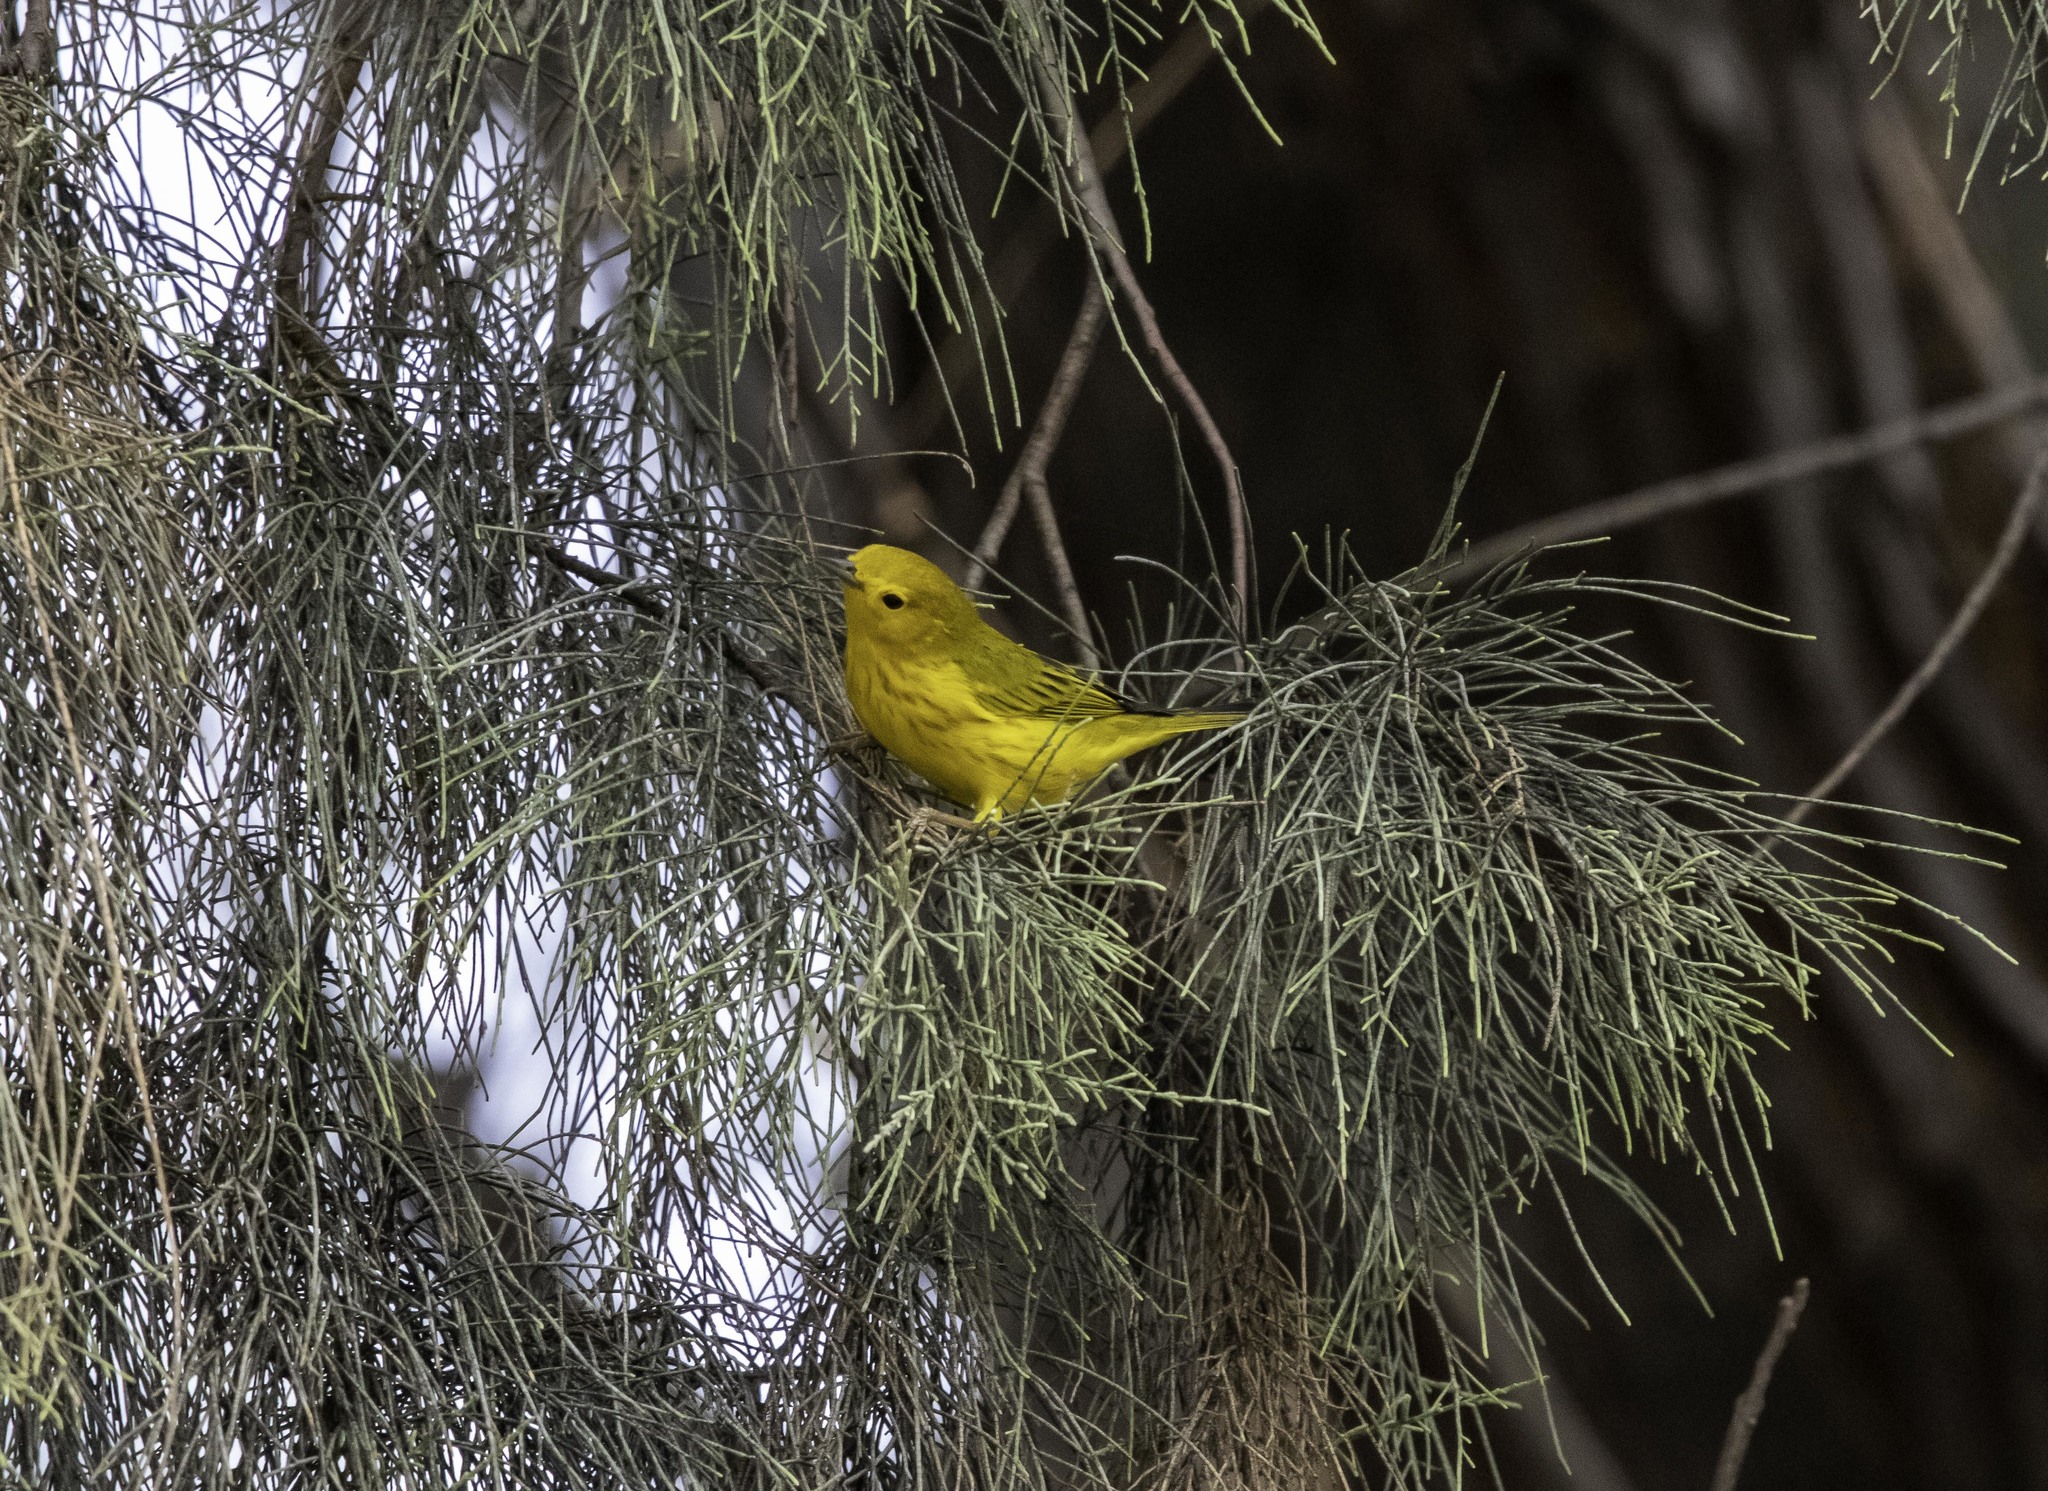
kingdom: Animalia
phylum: Chordata
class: Aves
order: Passeriformes
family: Parulidae
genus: Setophaga
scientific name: Setophaga petechia
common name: Yellow warbler
